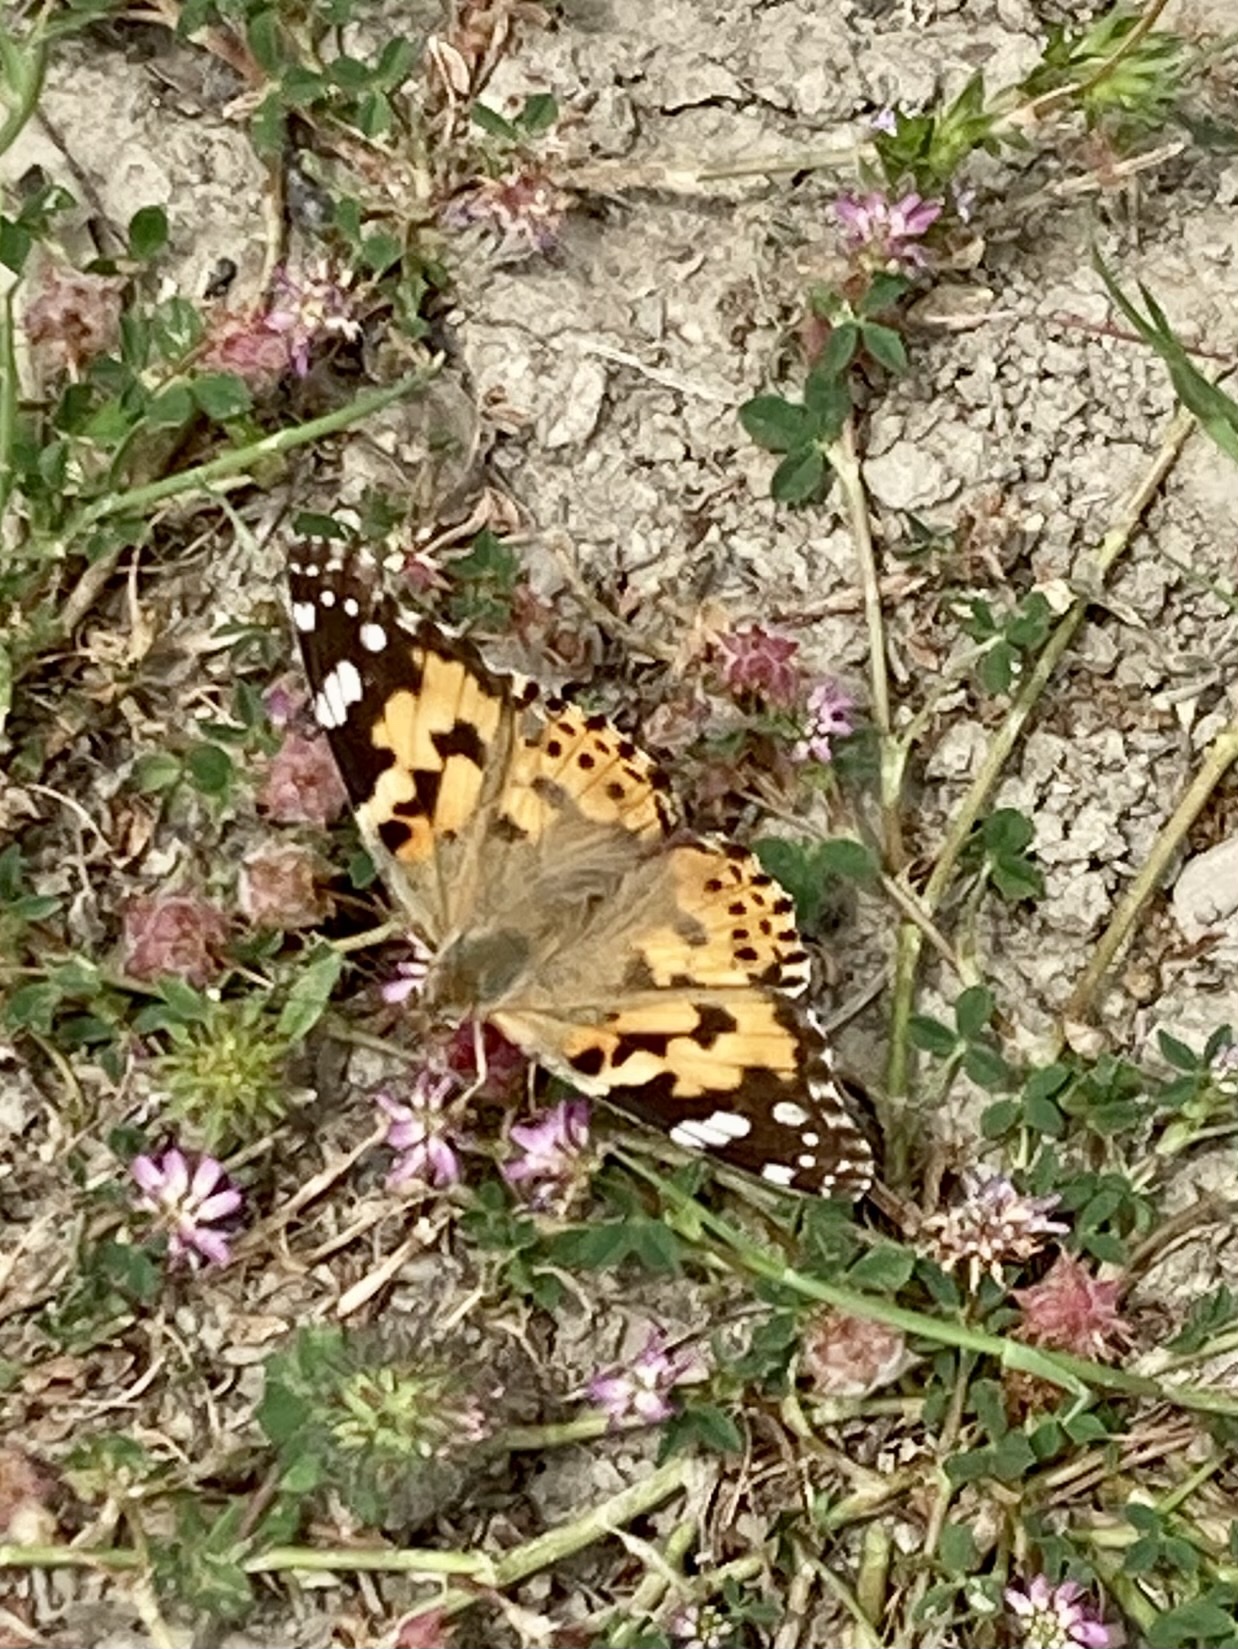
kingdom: Animalia
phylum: Arthropoda
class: Insecta
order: Lepidoptera
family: Nymphalidae
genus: Vanessa
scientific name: Vanessa cardui
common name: Painted lady
